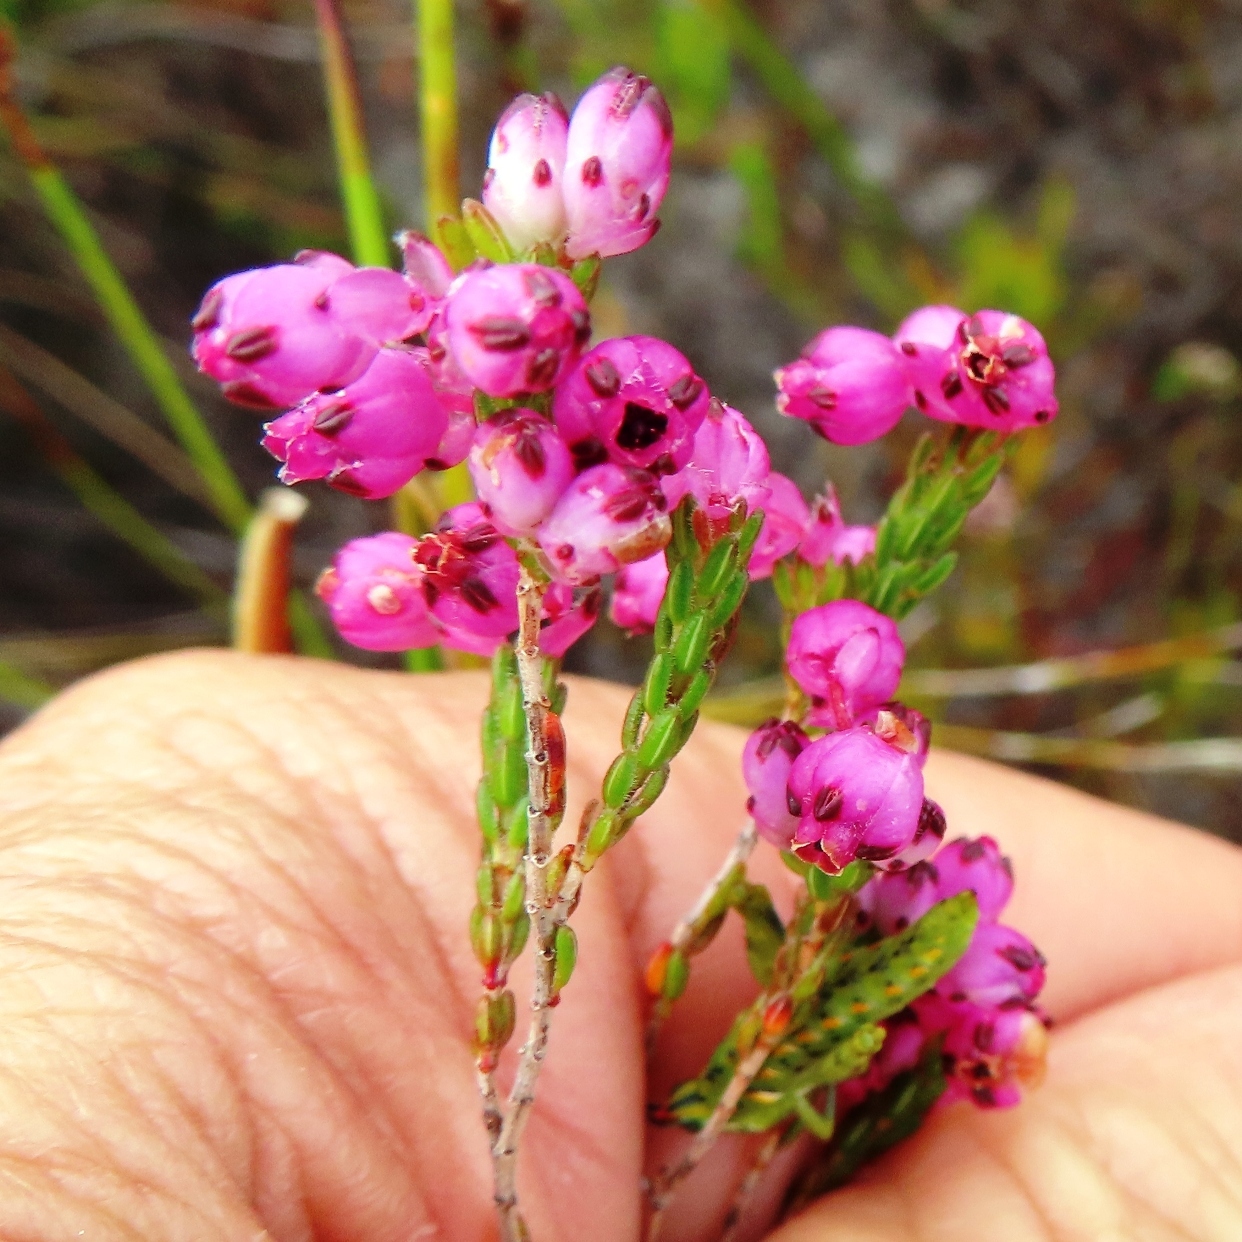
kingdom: Plantae
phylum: Tracheophyta
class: Magnoliopsida
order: Ericales
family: Ericaceae
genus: Erica
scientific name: Erica melanacme
